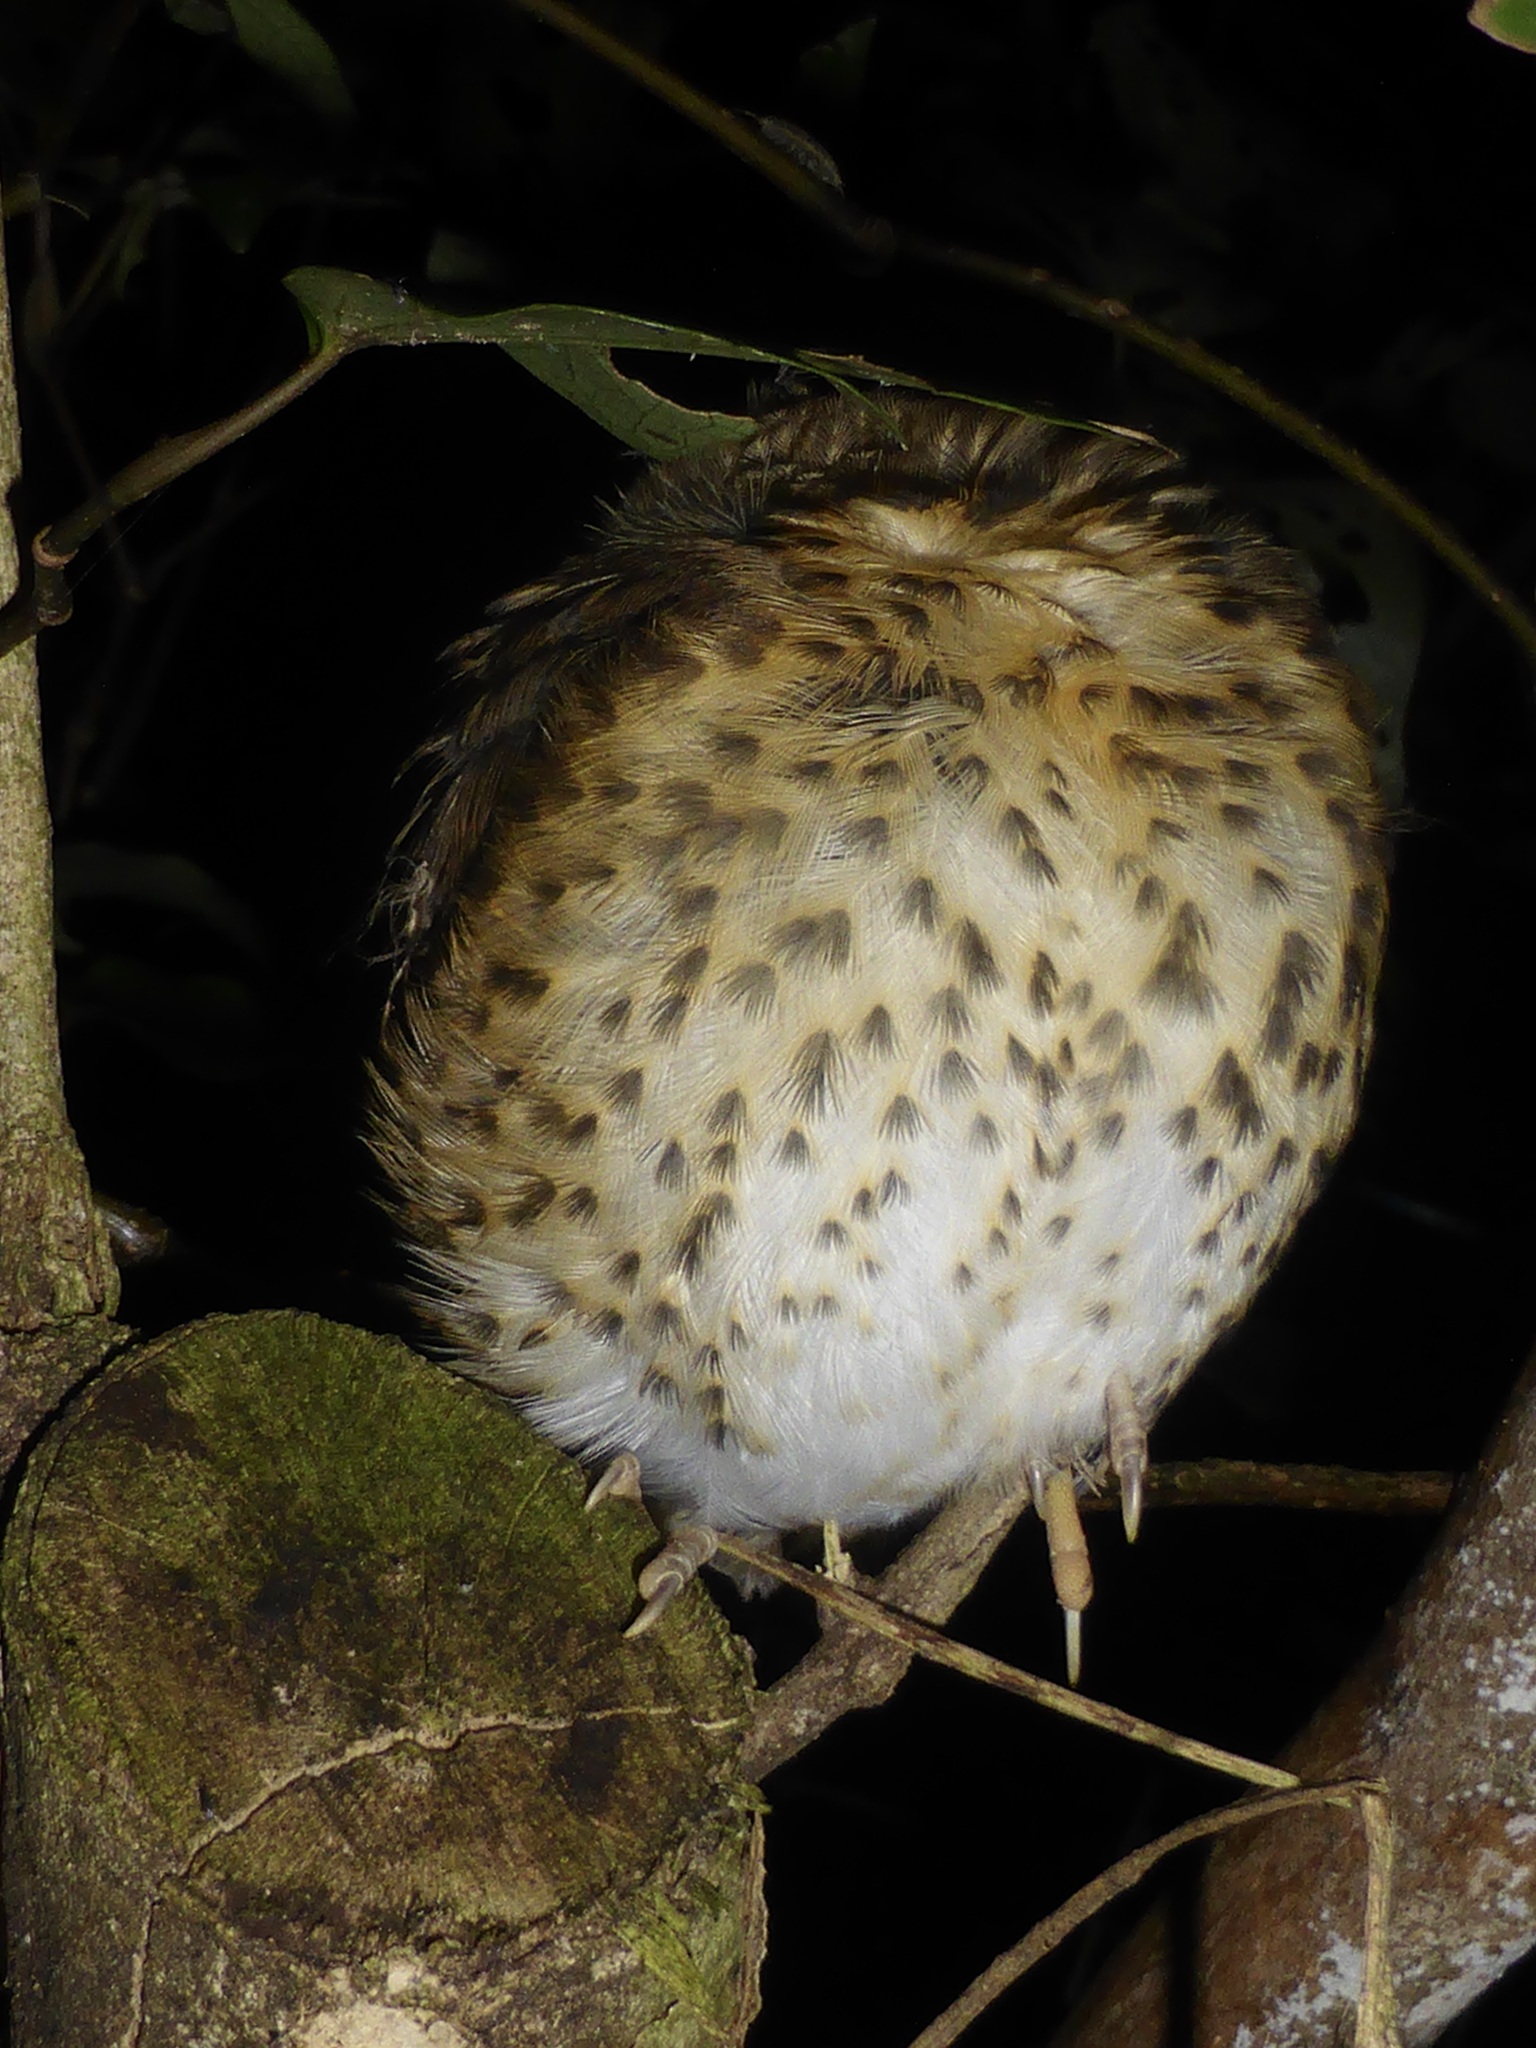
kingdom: Animalia
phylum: Chordata
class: Aves
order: Passeriformes
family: Turdidae
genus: Turdus
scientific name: Turdus philomelos
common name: Song thrush
